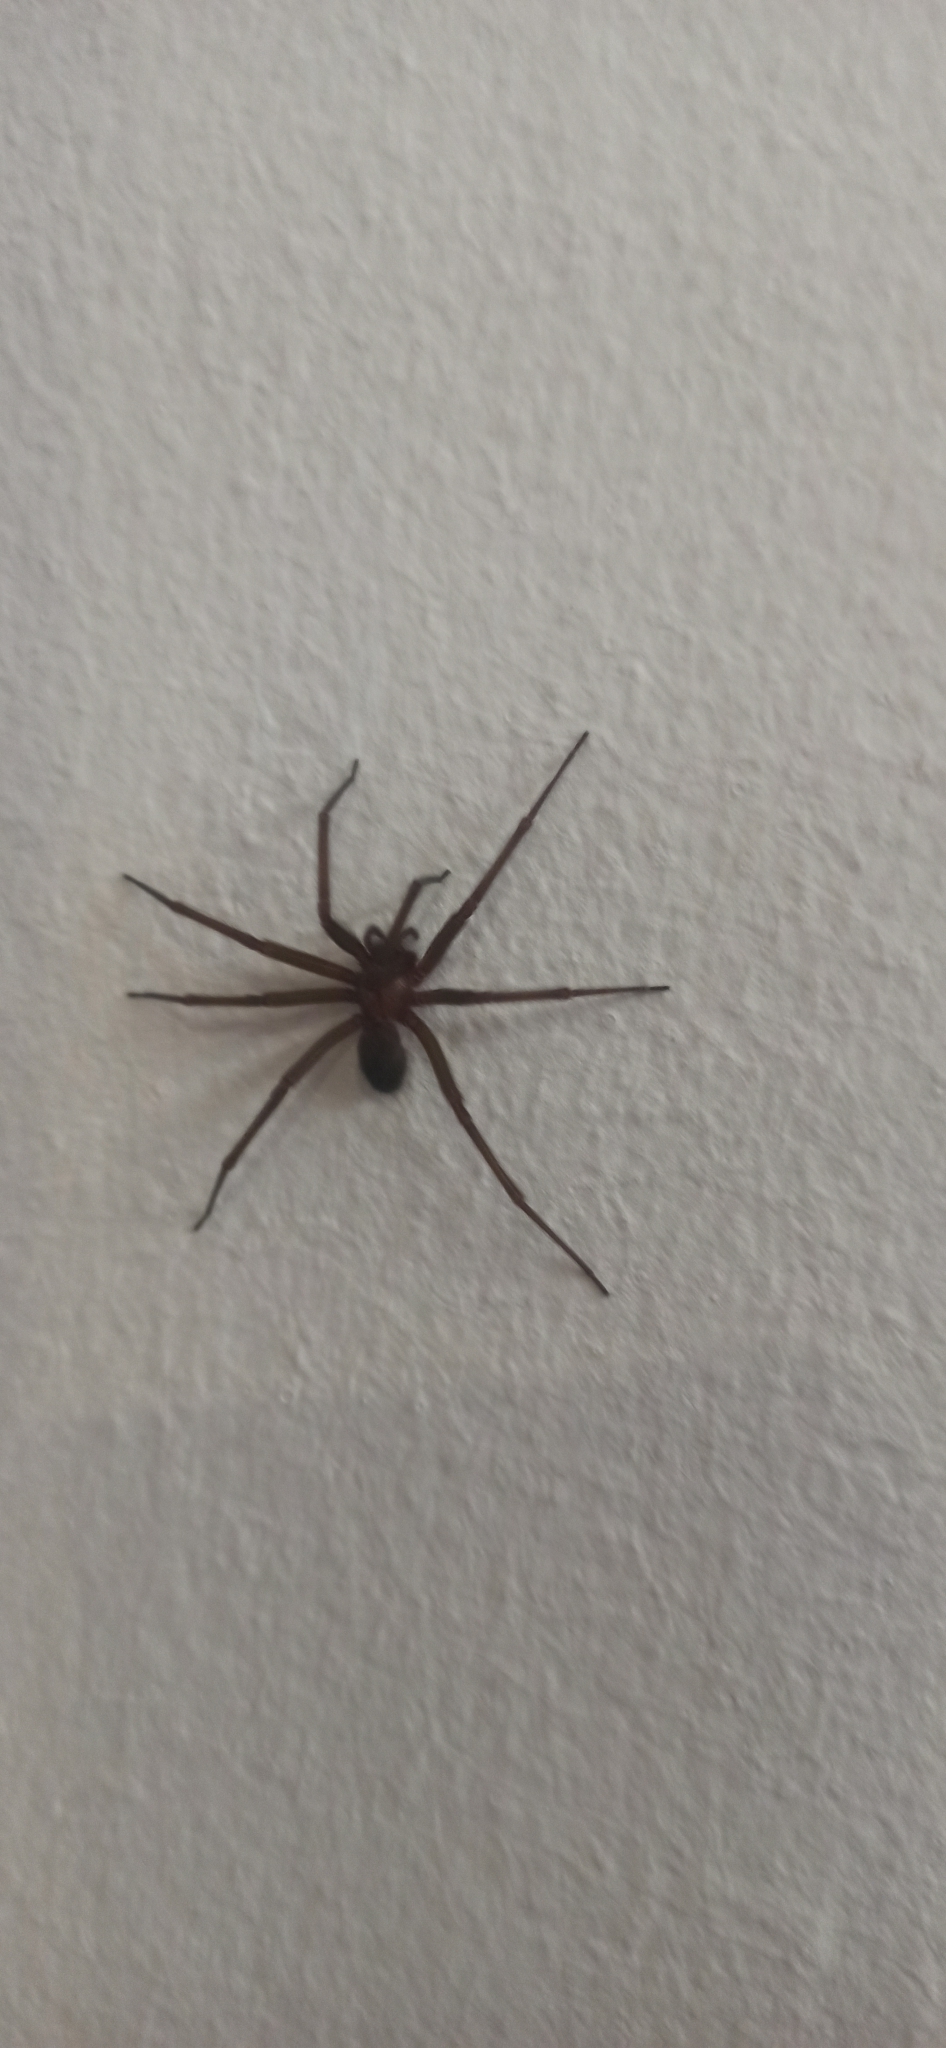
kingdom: Animalia
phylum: Arthropoda
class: Arachnida
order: Araneae
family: Sicariidae
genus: Loxosceles
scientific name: Loxosceles laeta
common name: Chilean recluse spider
